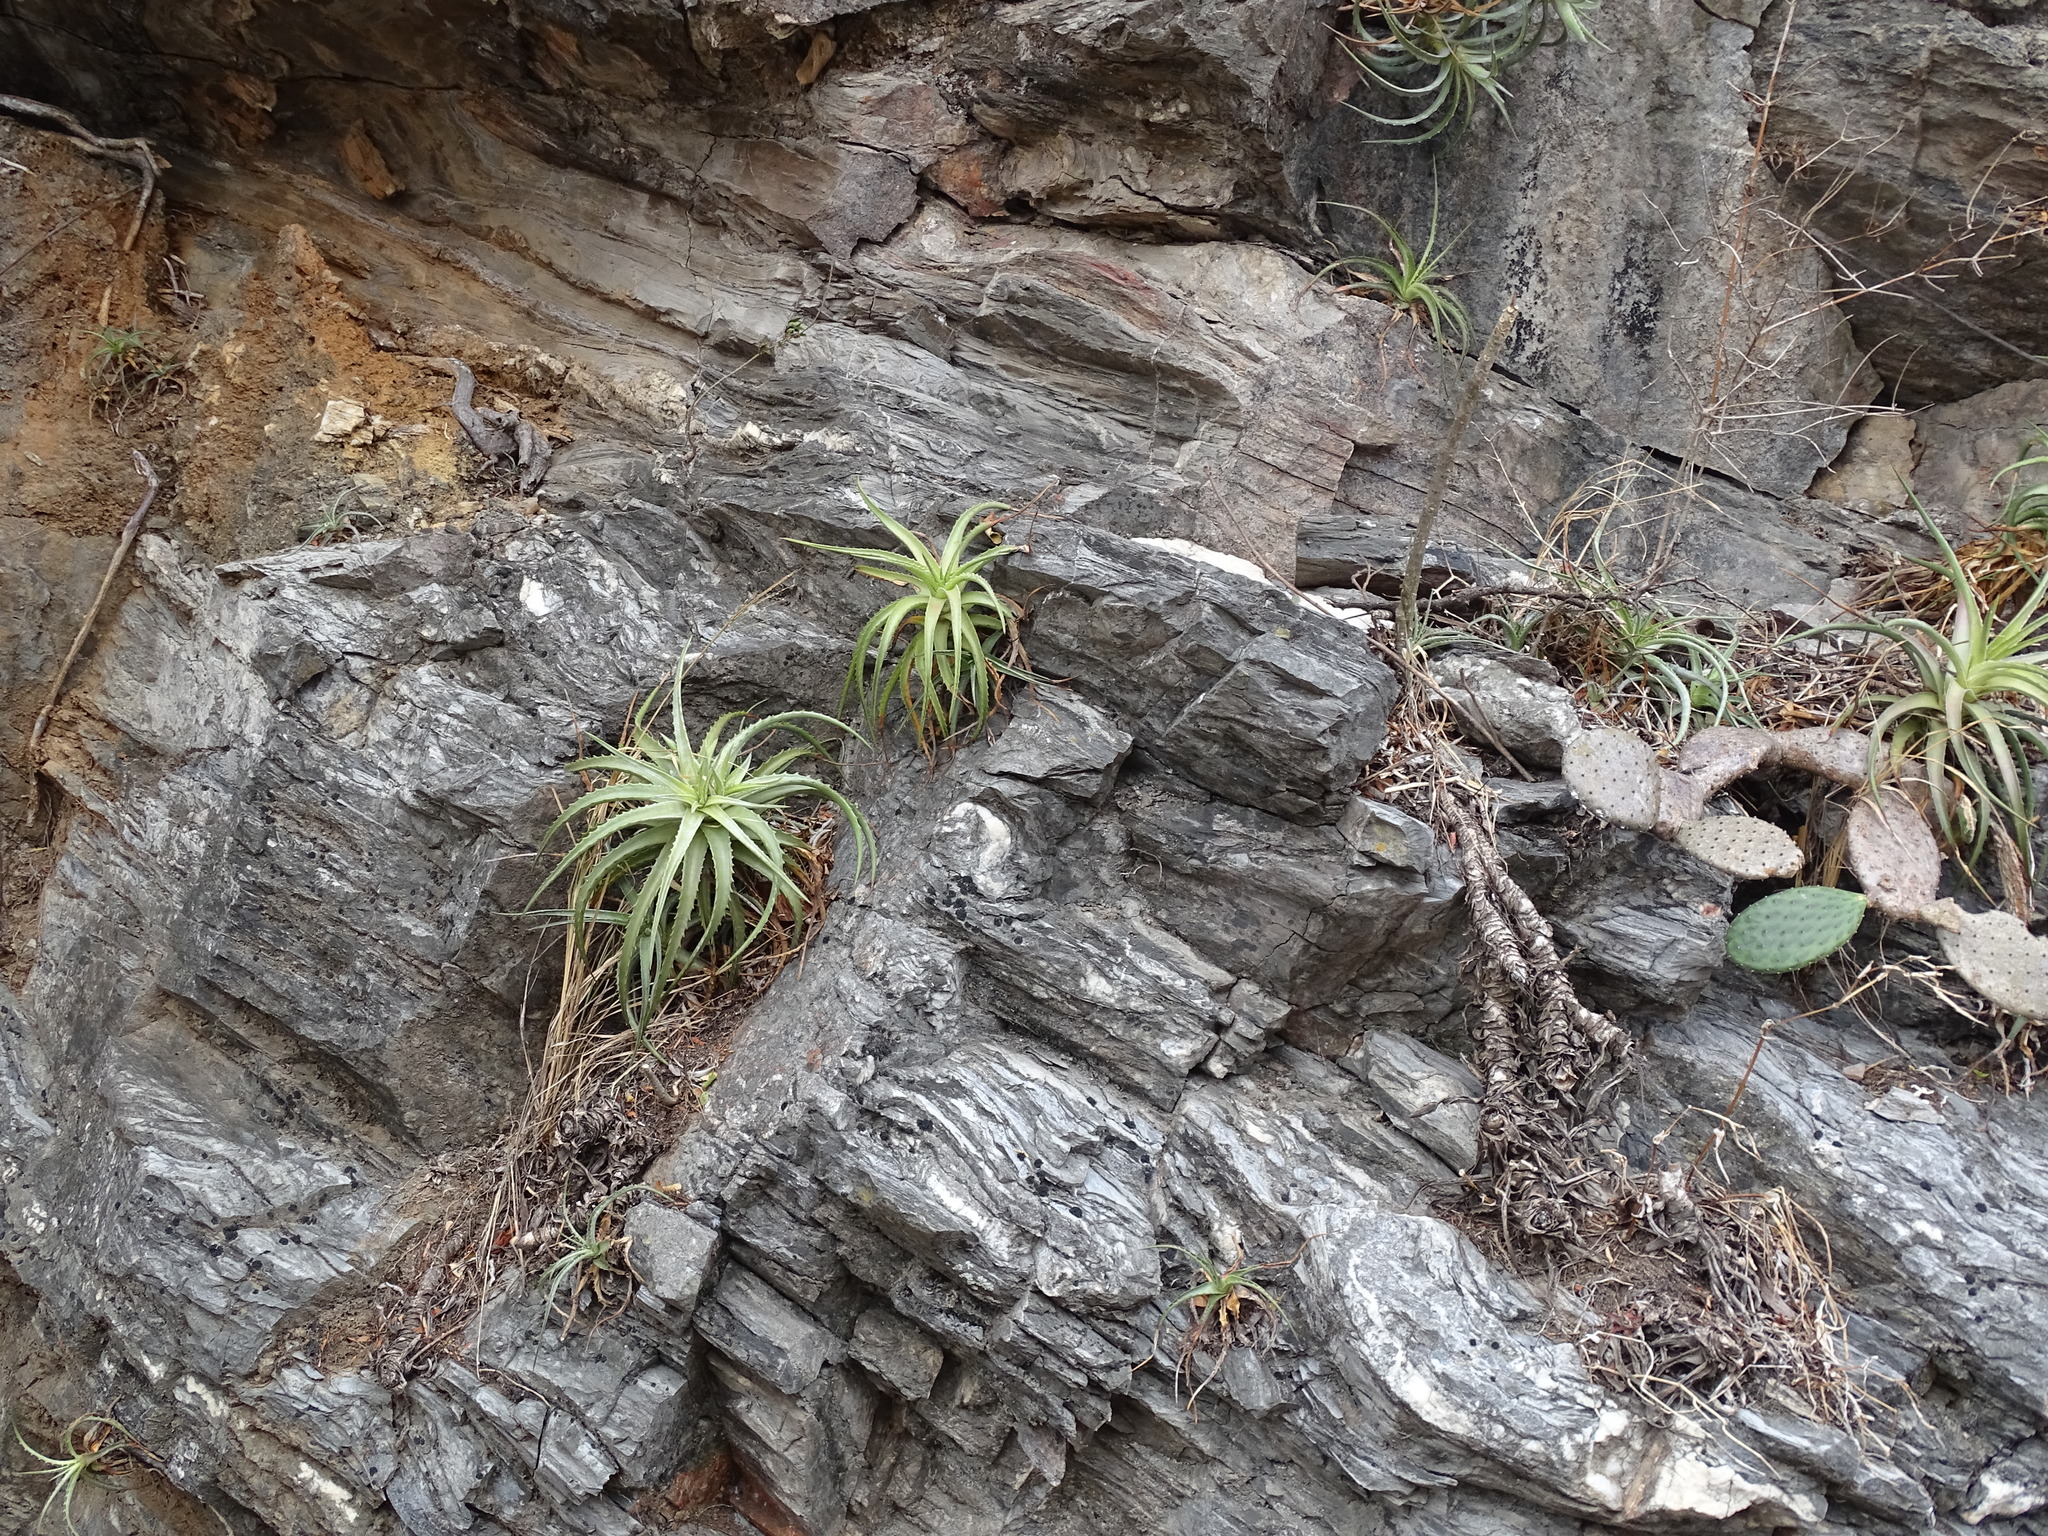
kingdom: Plantae
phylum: Tracheophyta
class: Liliopsida
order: Poales
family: Bromeliaceae
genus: Hechtia
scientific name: Hechtia isthmusiana
